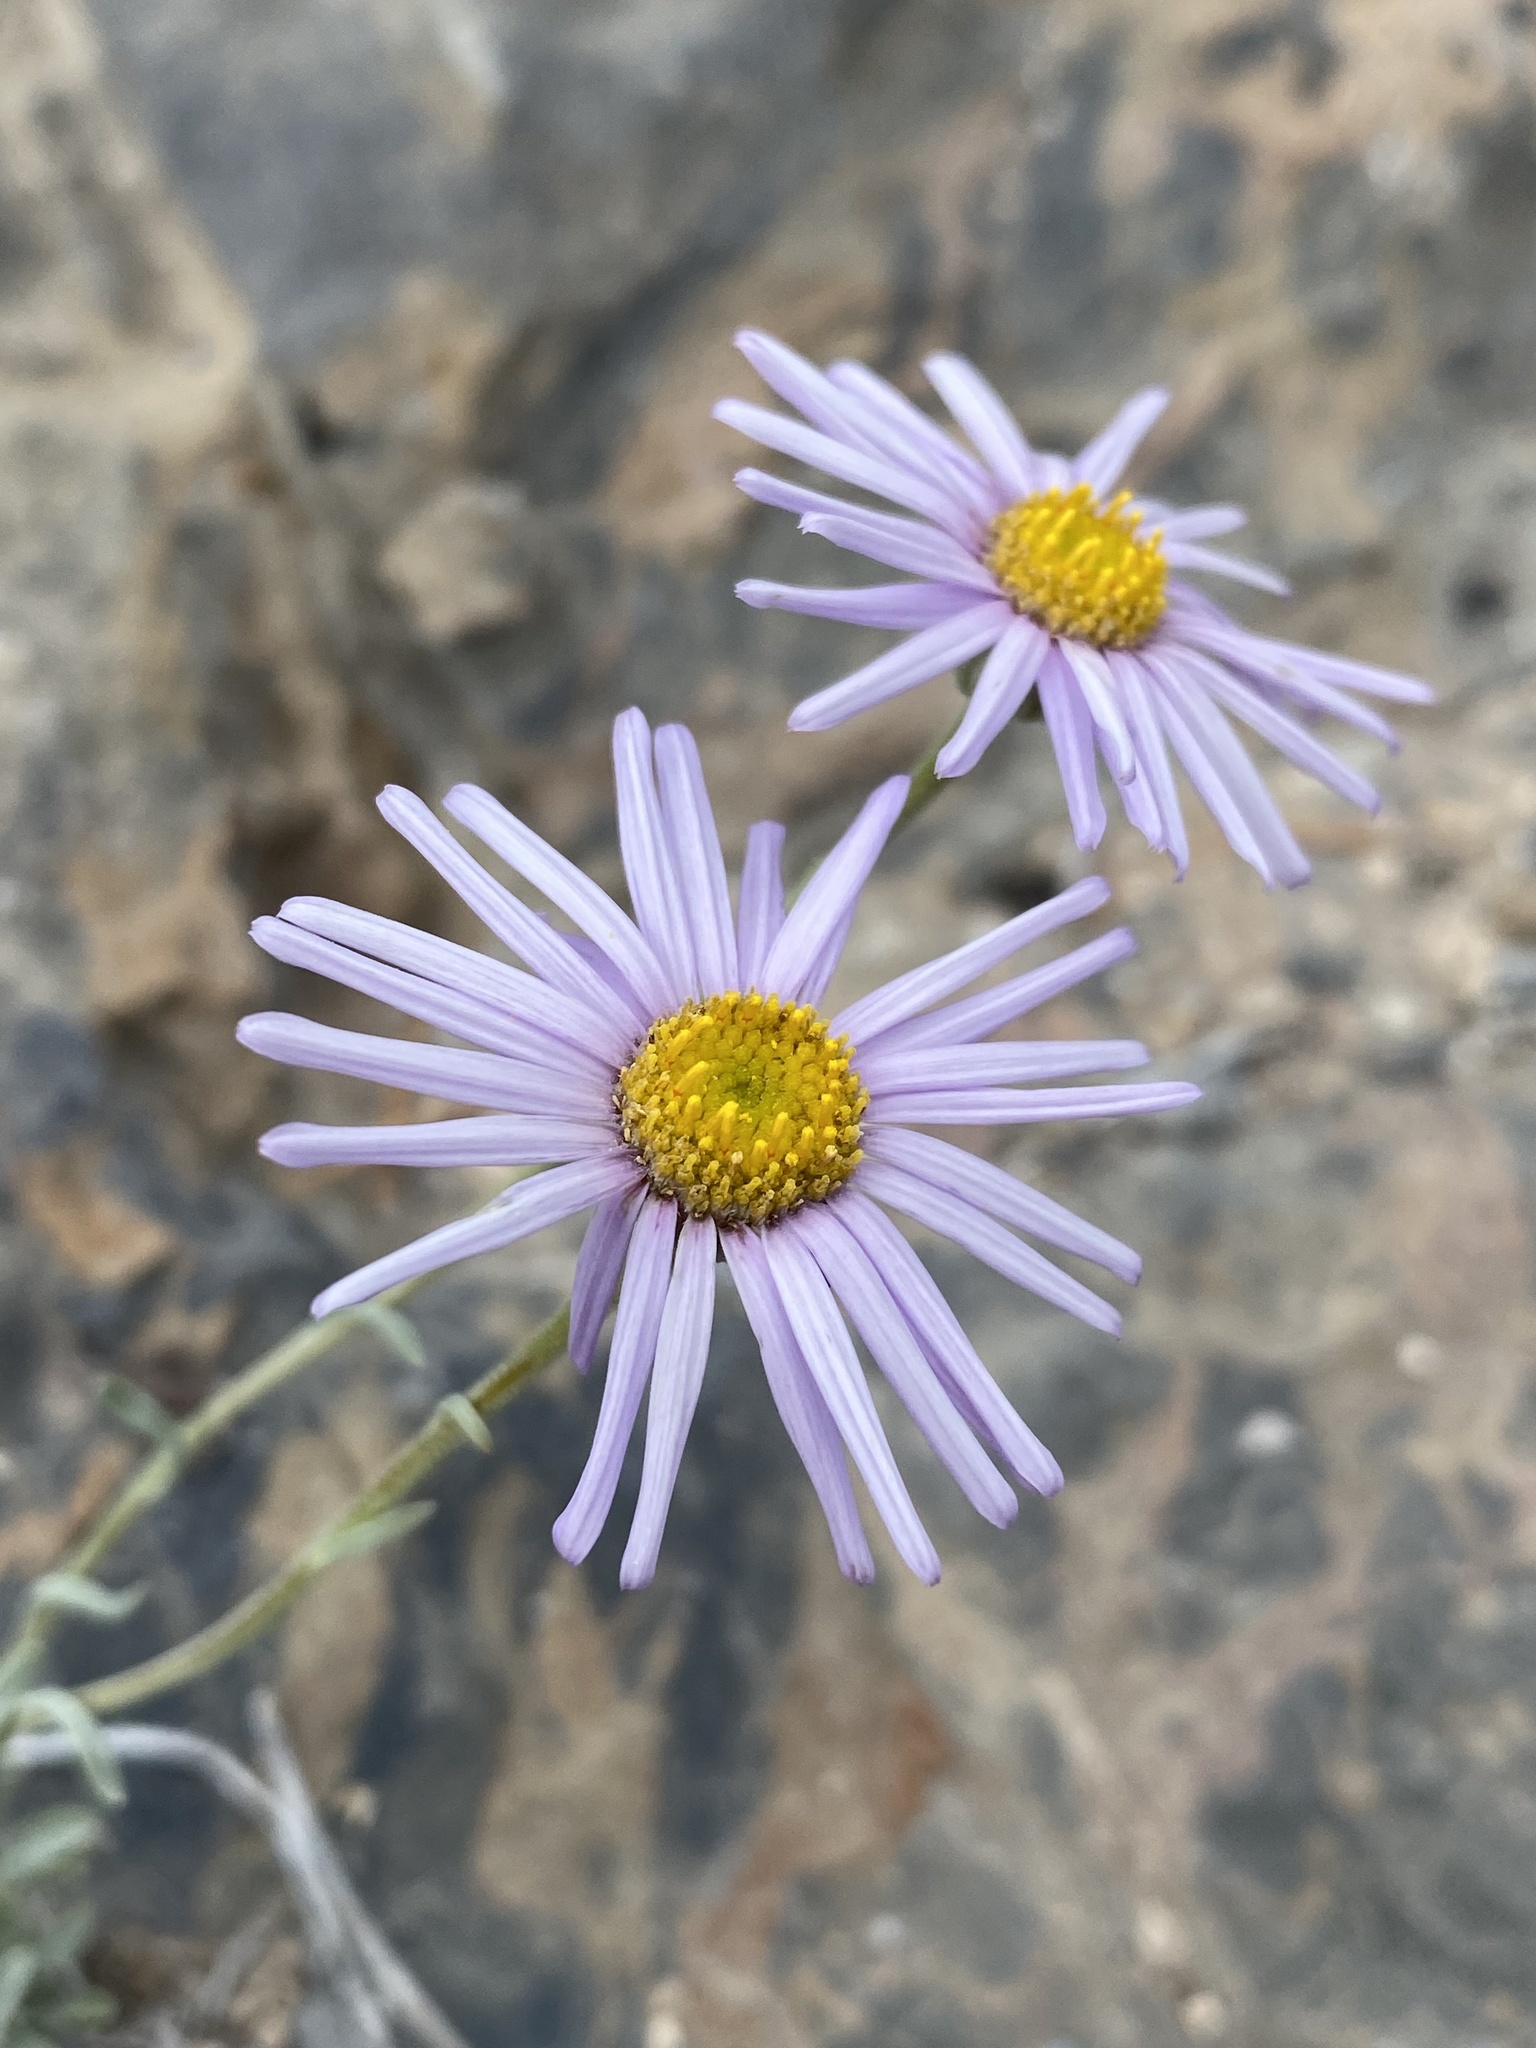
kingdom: Plantae
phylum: Tracheophyta
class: Magnoliopsida
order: Asterales
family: Asteraceae
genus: Erigeron
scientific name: Erigeron argentatus
